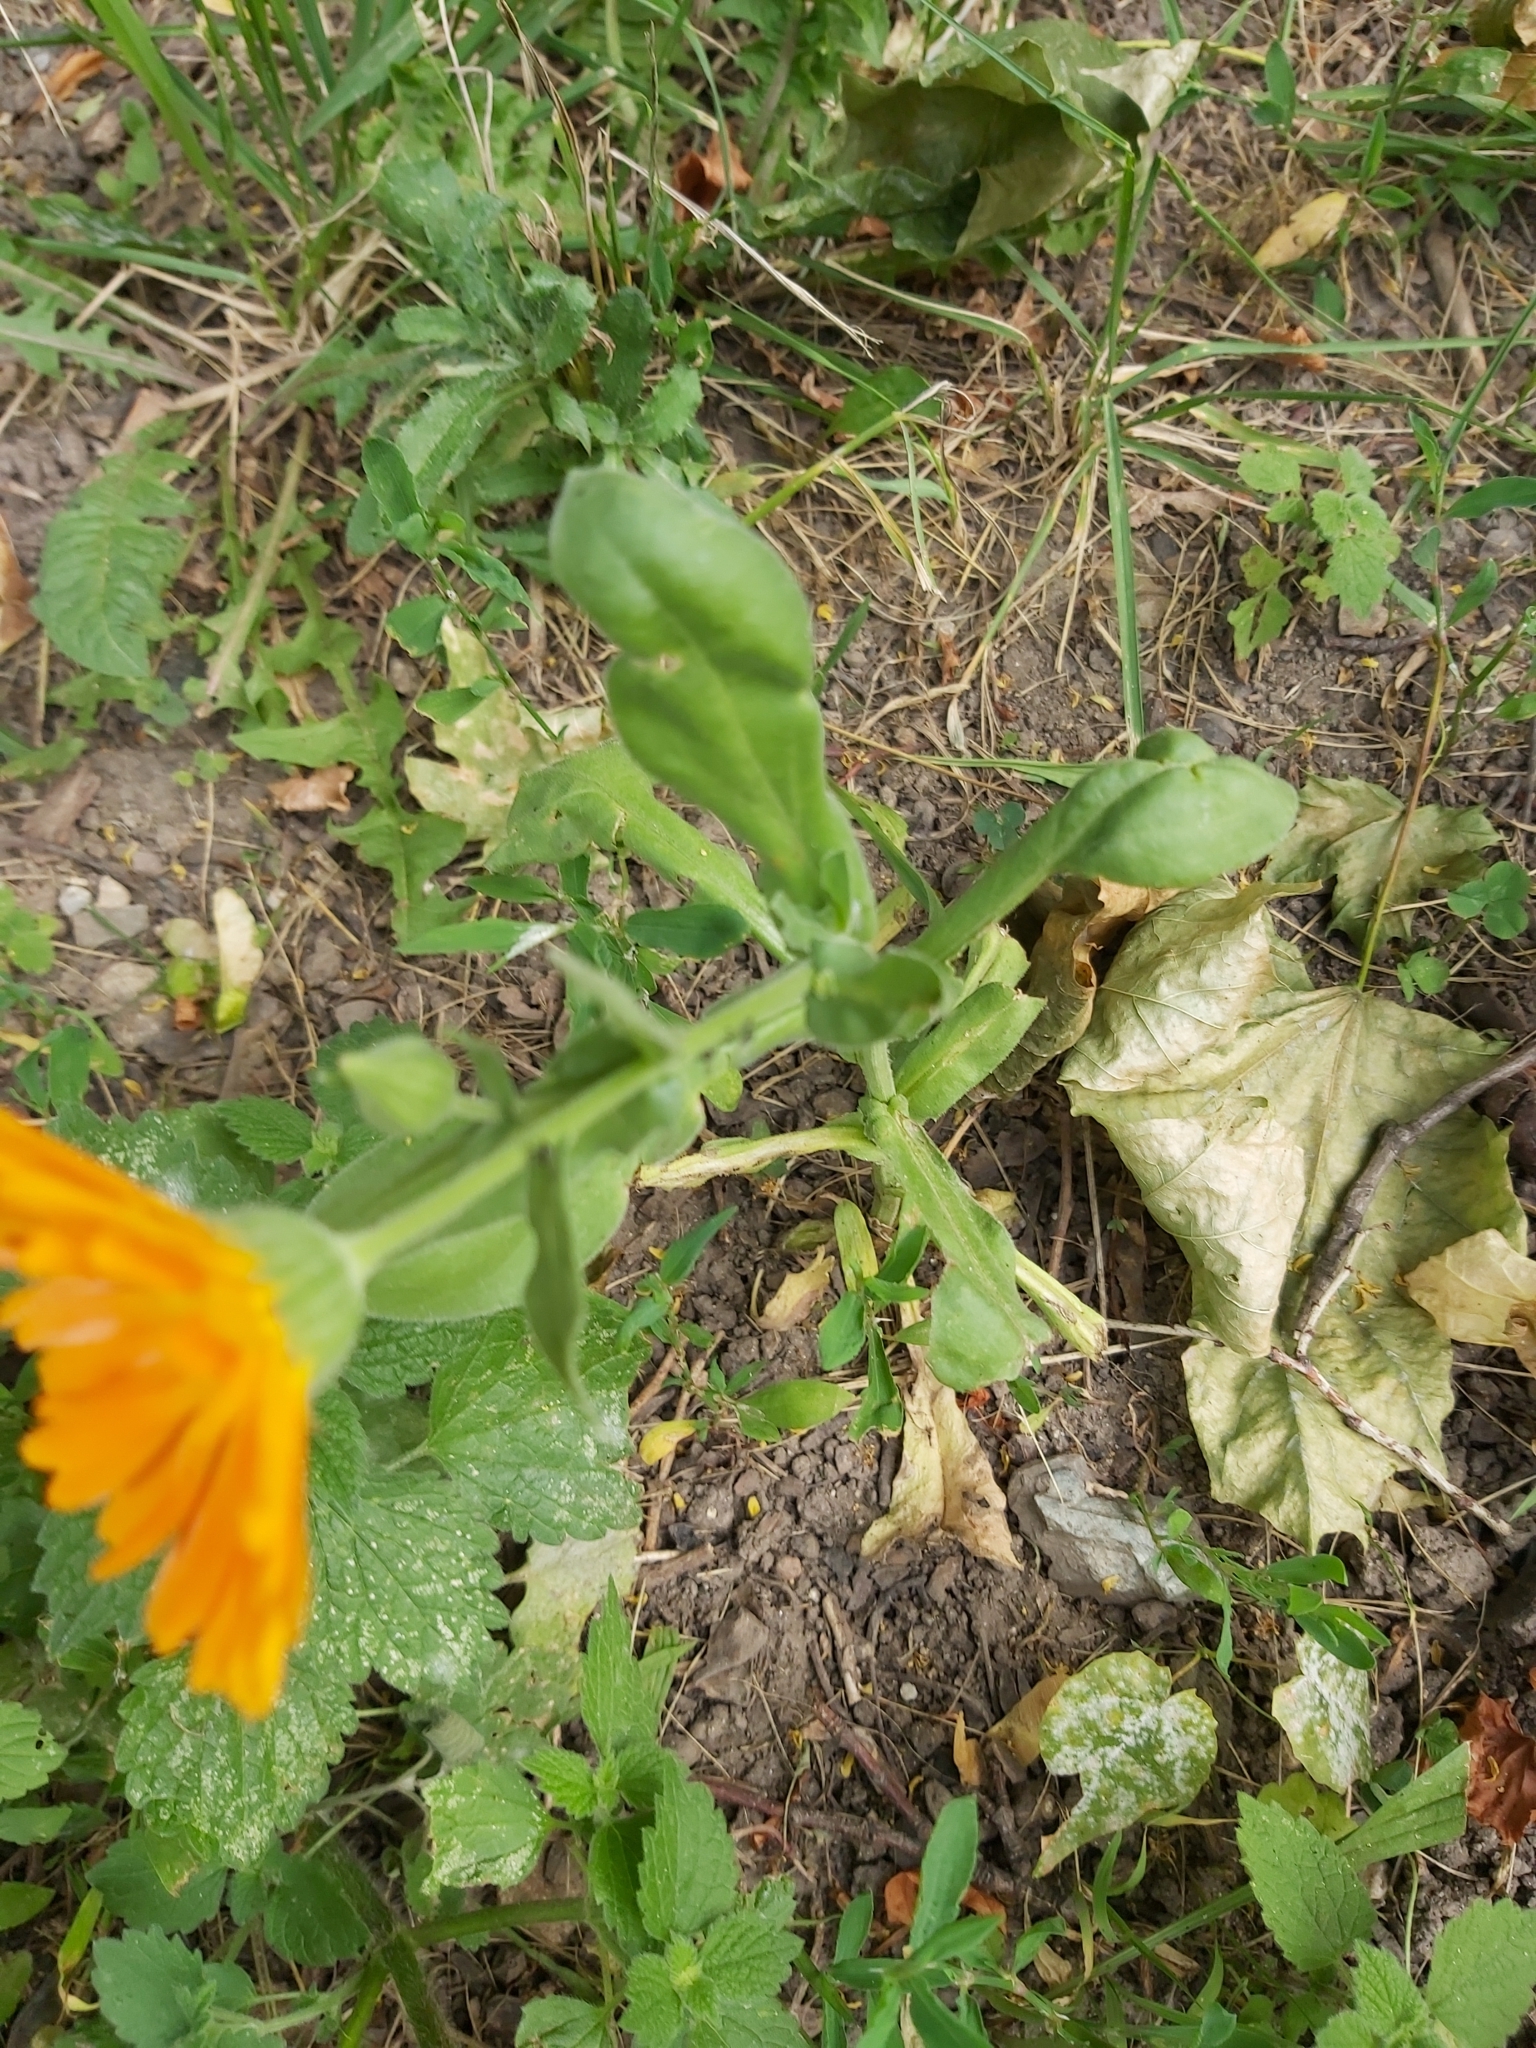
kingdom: Plantae
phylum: Tracheophyta
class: Magnoliopsida
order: Asterales
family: Asteraceae
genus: Calendula
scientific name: Calendula officinalis
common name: Pot marigold
